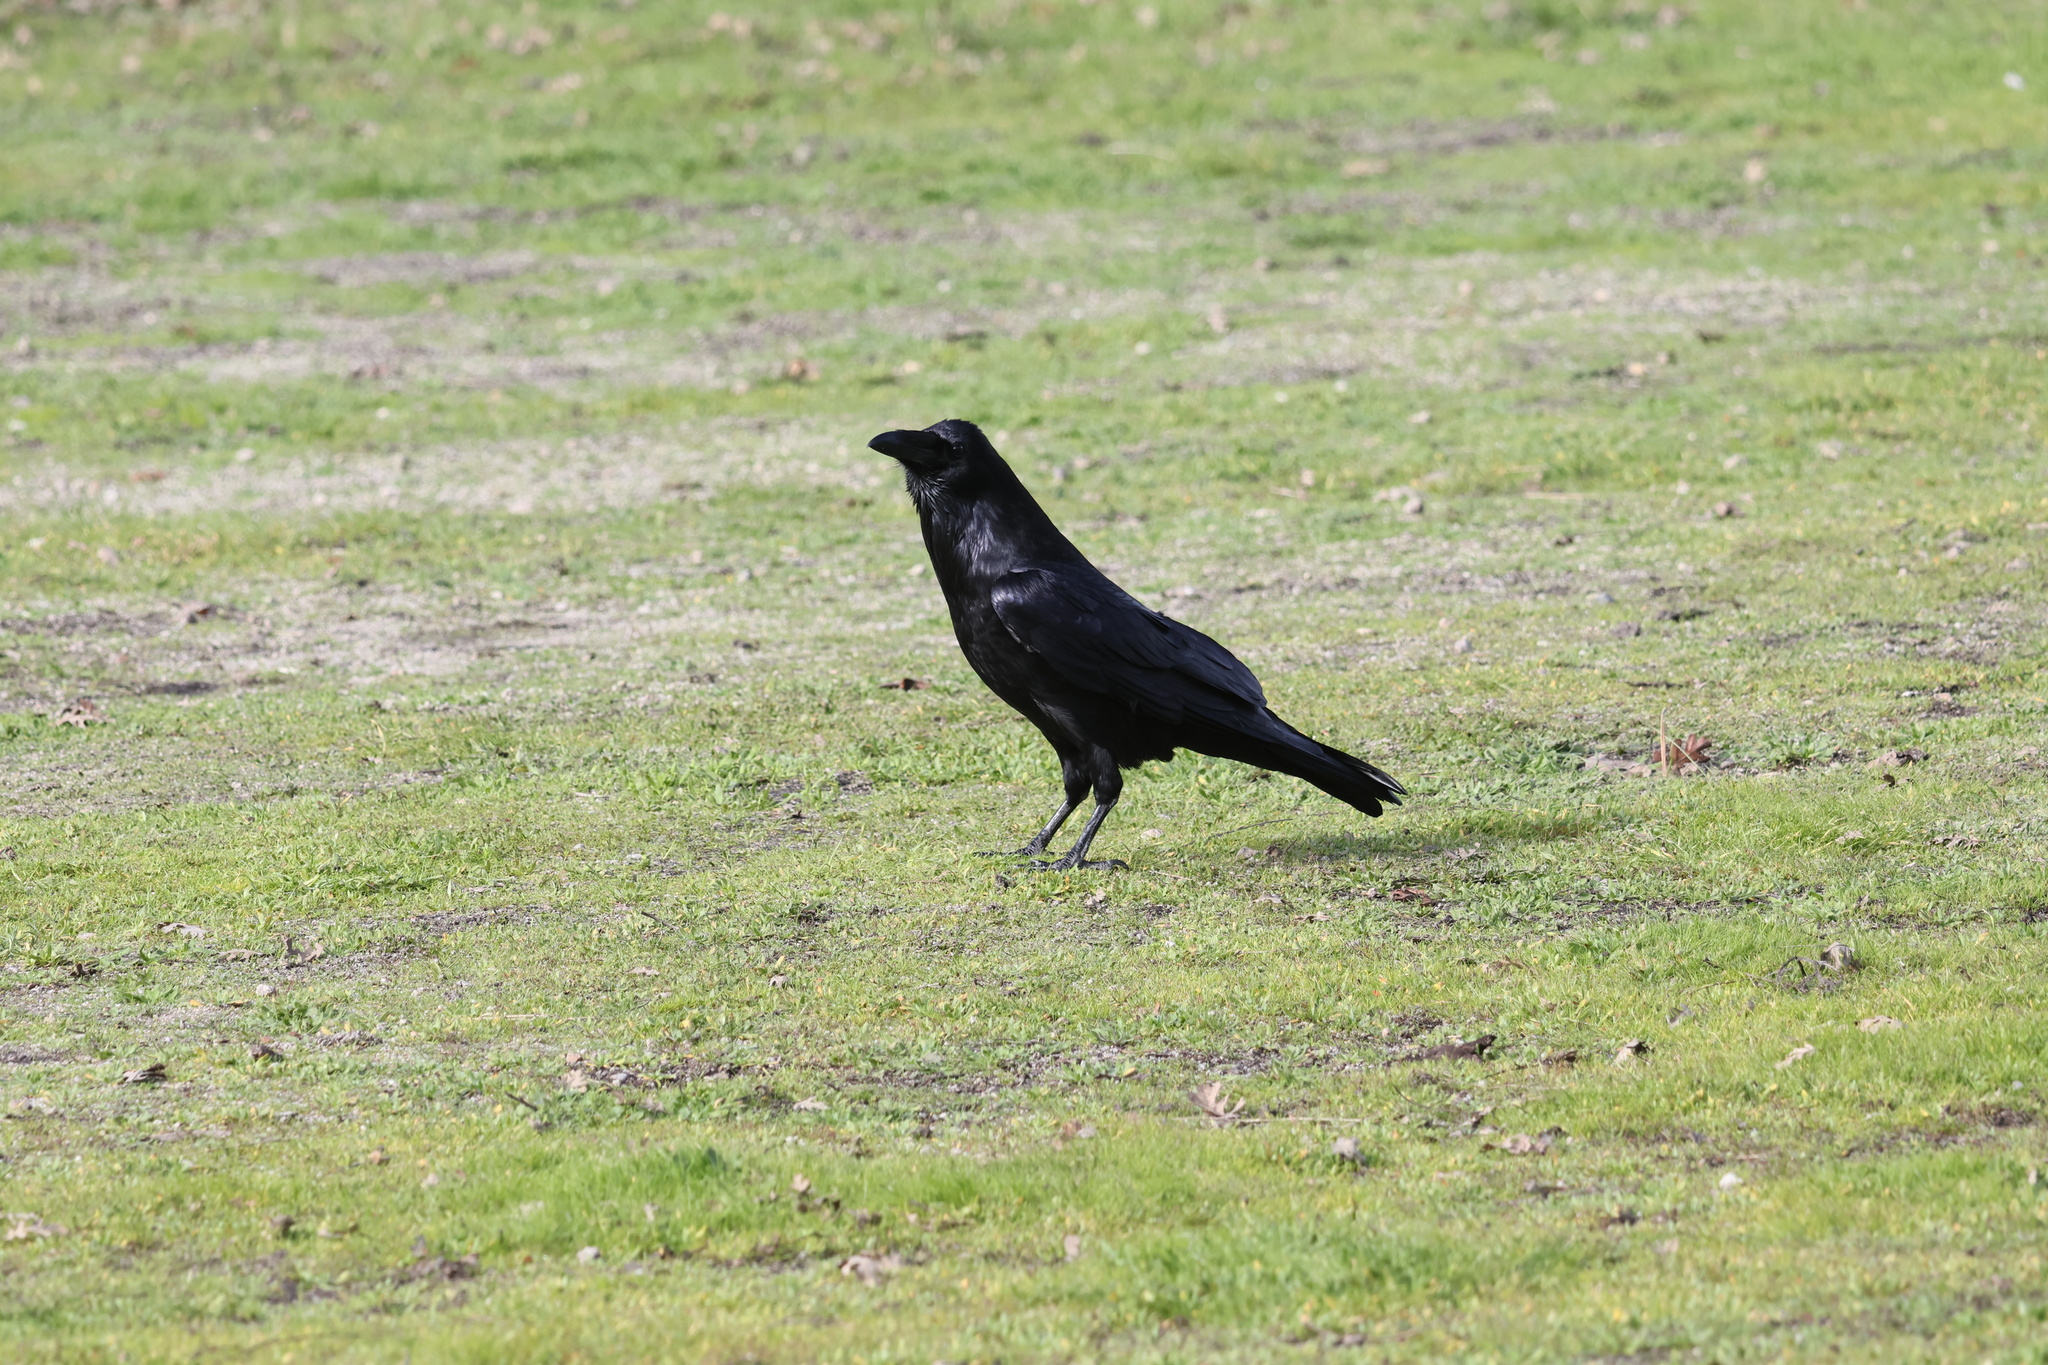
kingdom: Animalia
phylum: Chordata
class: Aves
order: Passeriformes
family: Corvidae
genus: Corvus
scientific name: Corvus corax
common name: Common raven
